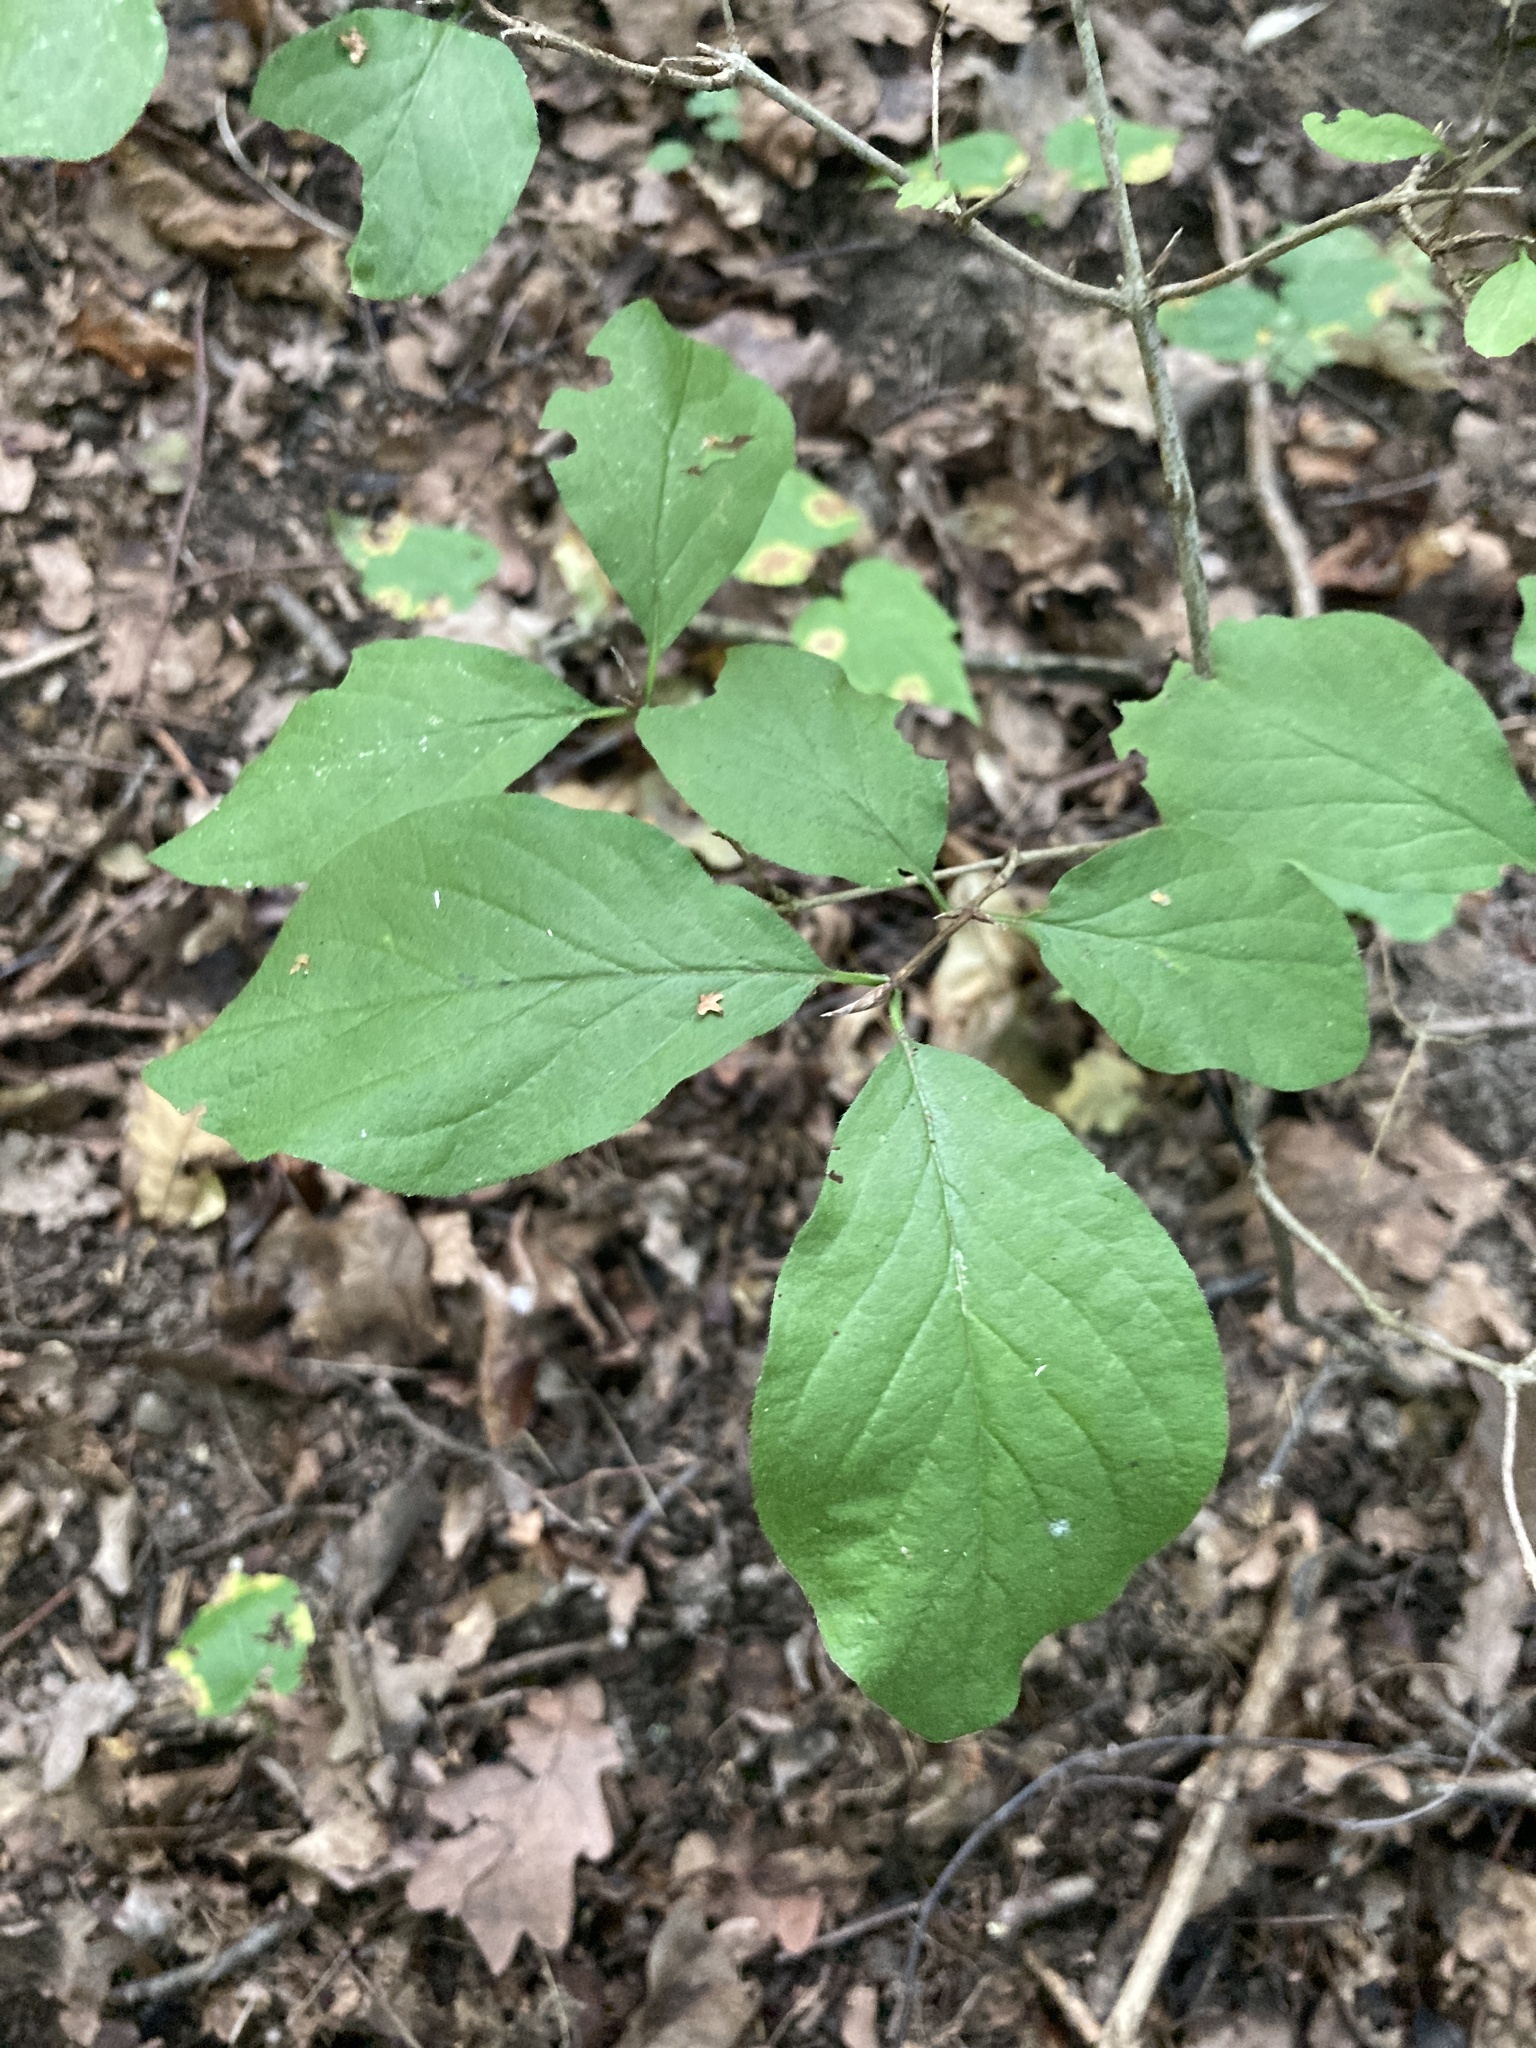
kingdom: Plantae
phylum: Tracheophyta
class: Magnoliopsida
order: Dipsacales
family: Caprifoliaceae
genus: Lonicera
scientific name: Lonicera xylosteum
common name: Fly honeysuckle
